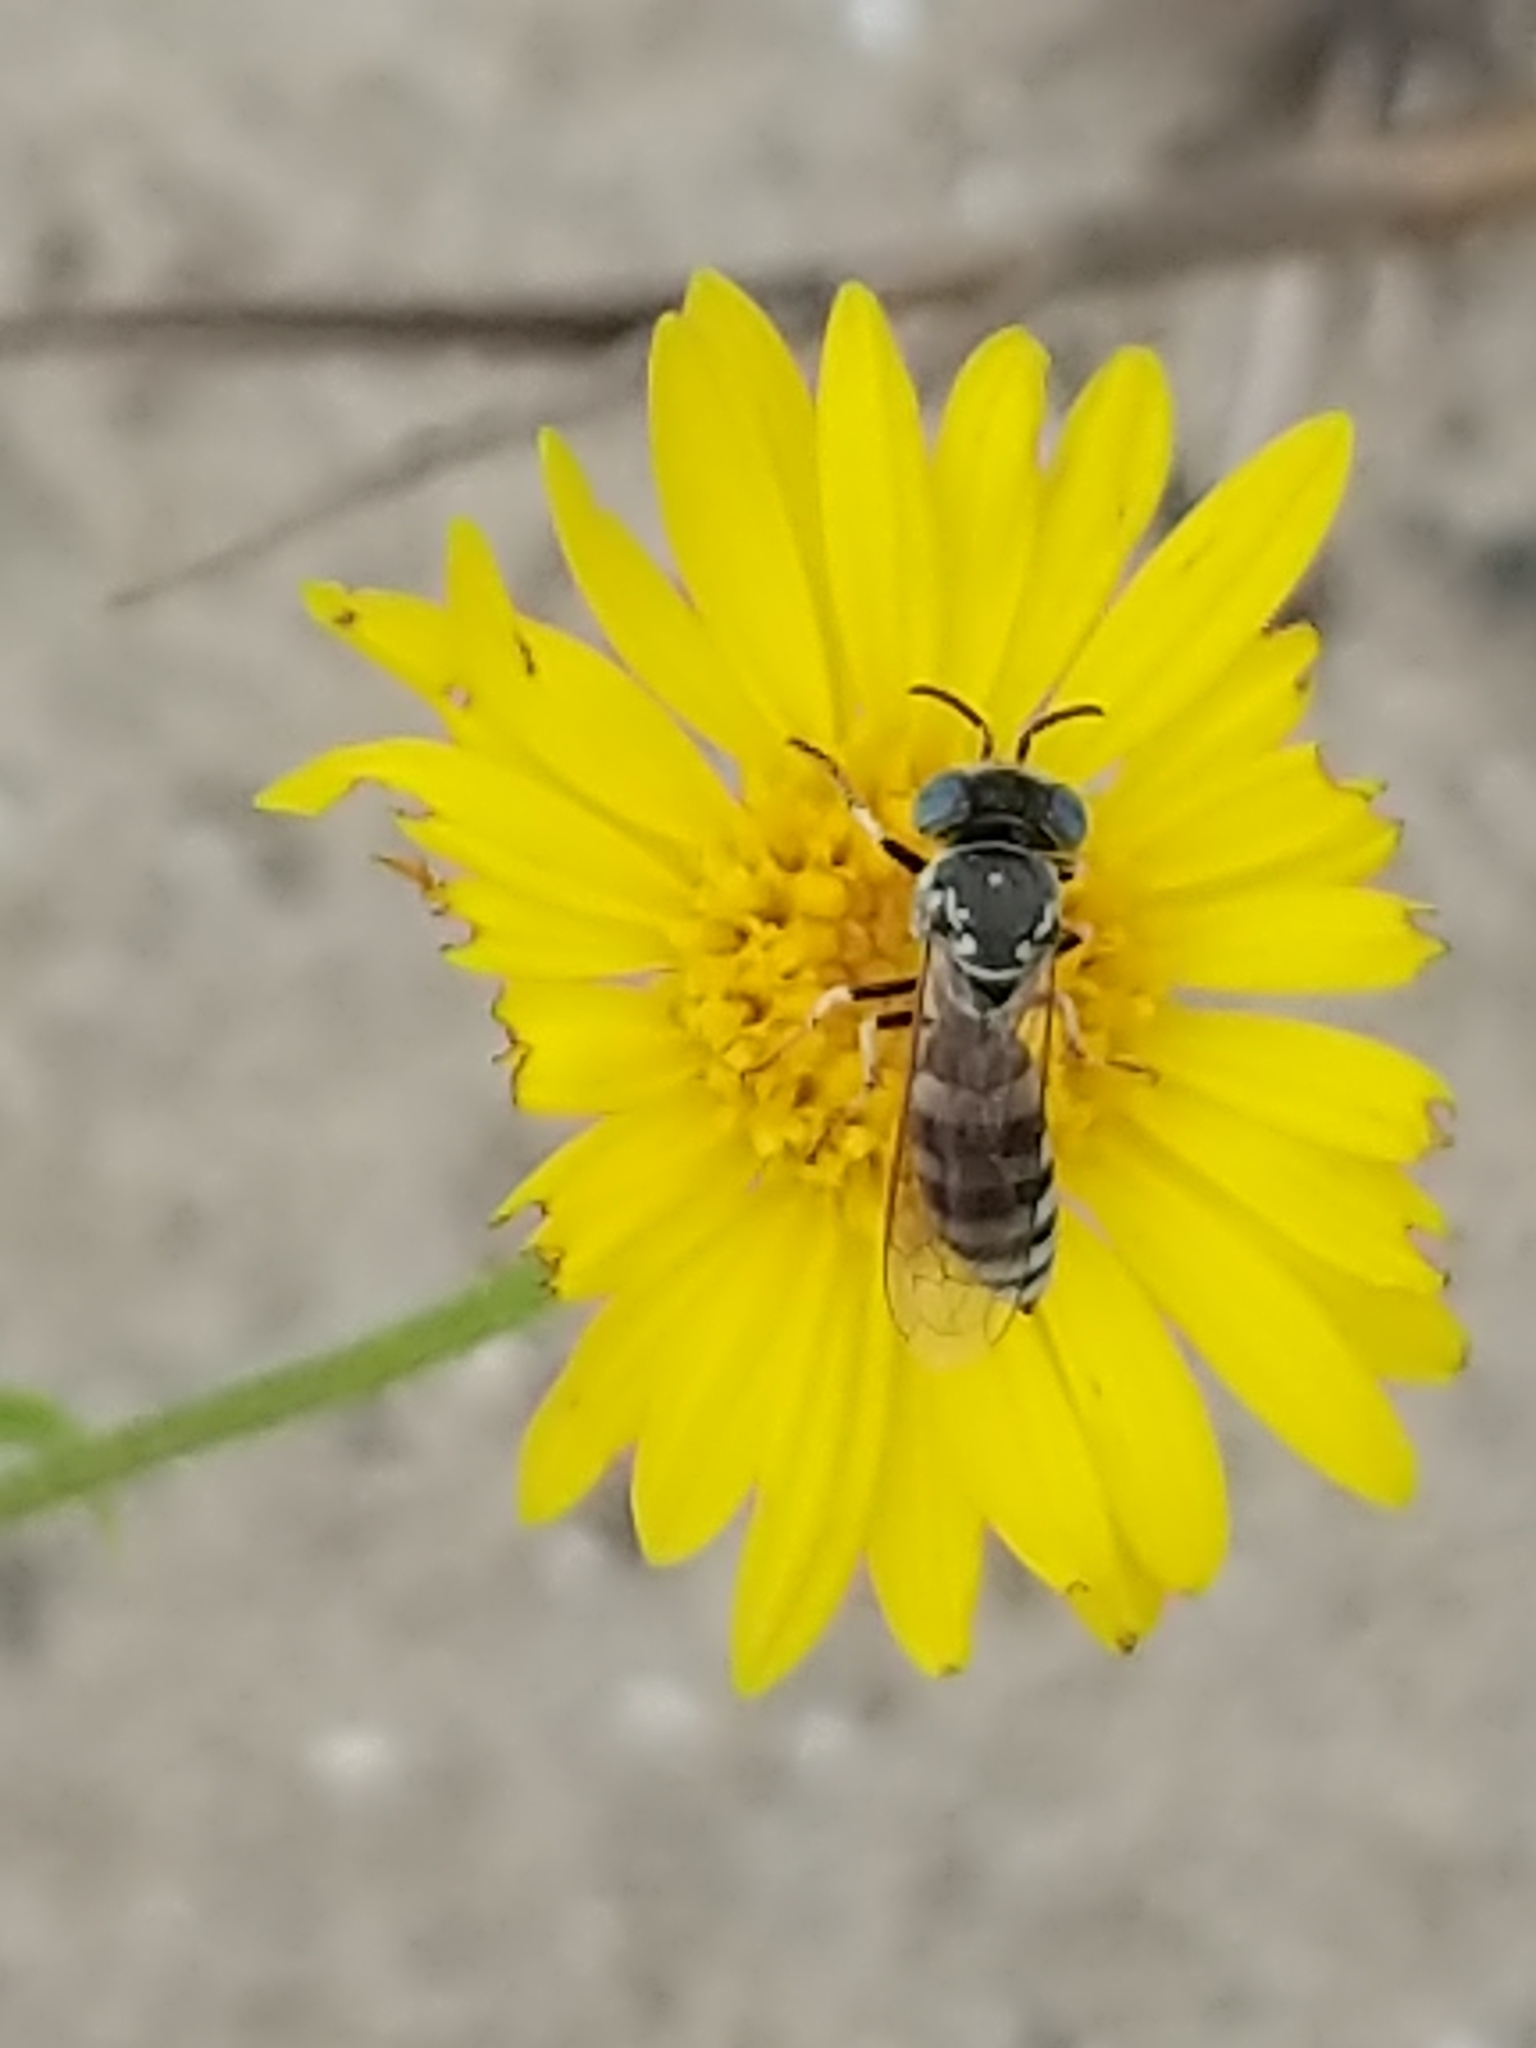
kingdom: Animalia
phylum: Arthropoda
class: Insecta
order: Hymenoptera
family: Crabronidae
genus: Microbembex
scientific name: Microbembex monodonta
